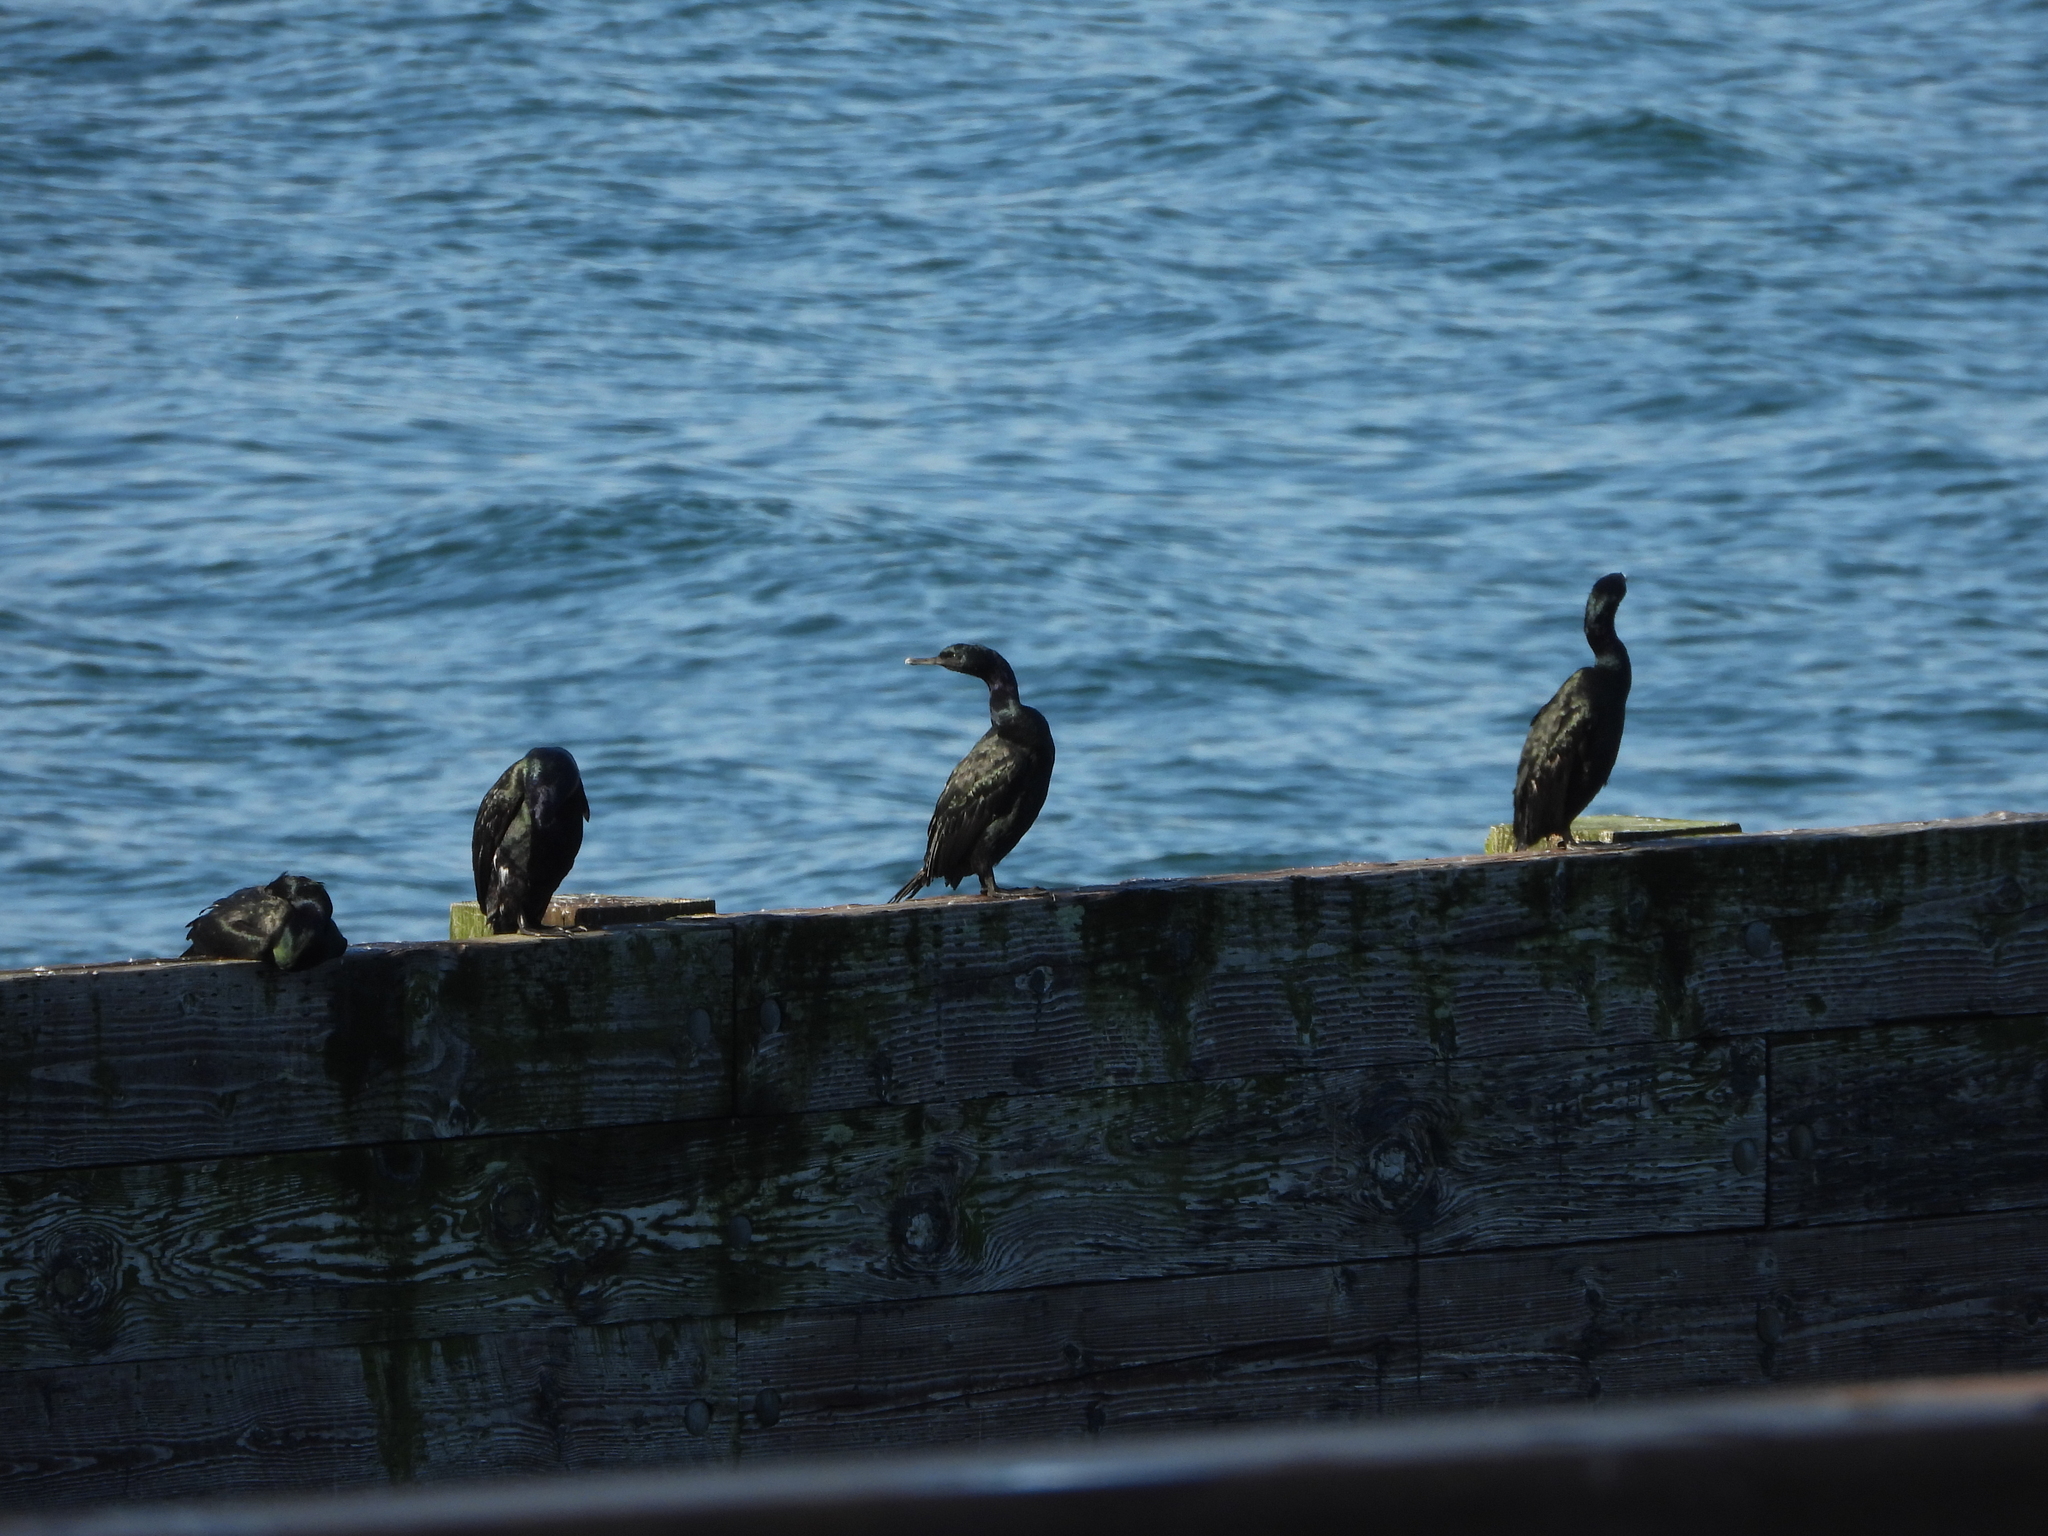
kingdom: Animalia
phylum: Chordata
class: Aves
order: Suliformes
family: Phalacrocoracidae
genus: Phalacrocorax
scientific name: Phalacrocorax pelagicus
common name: Pelagic cormorant
